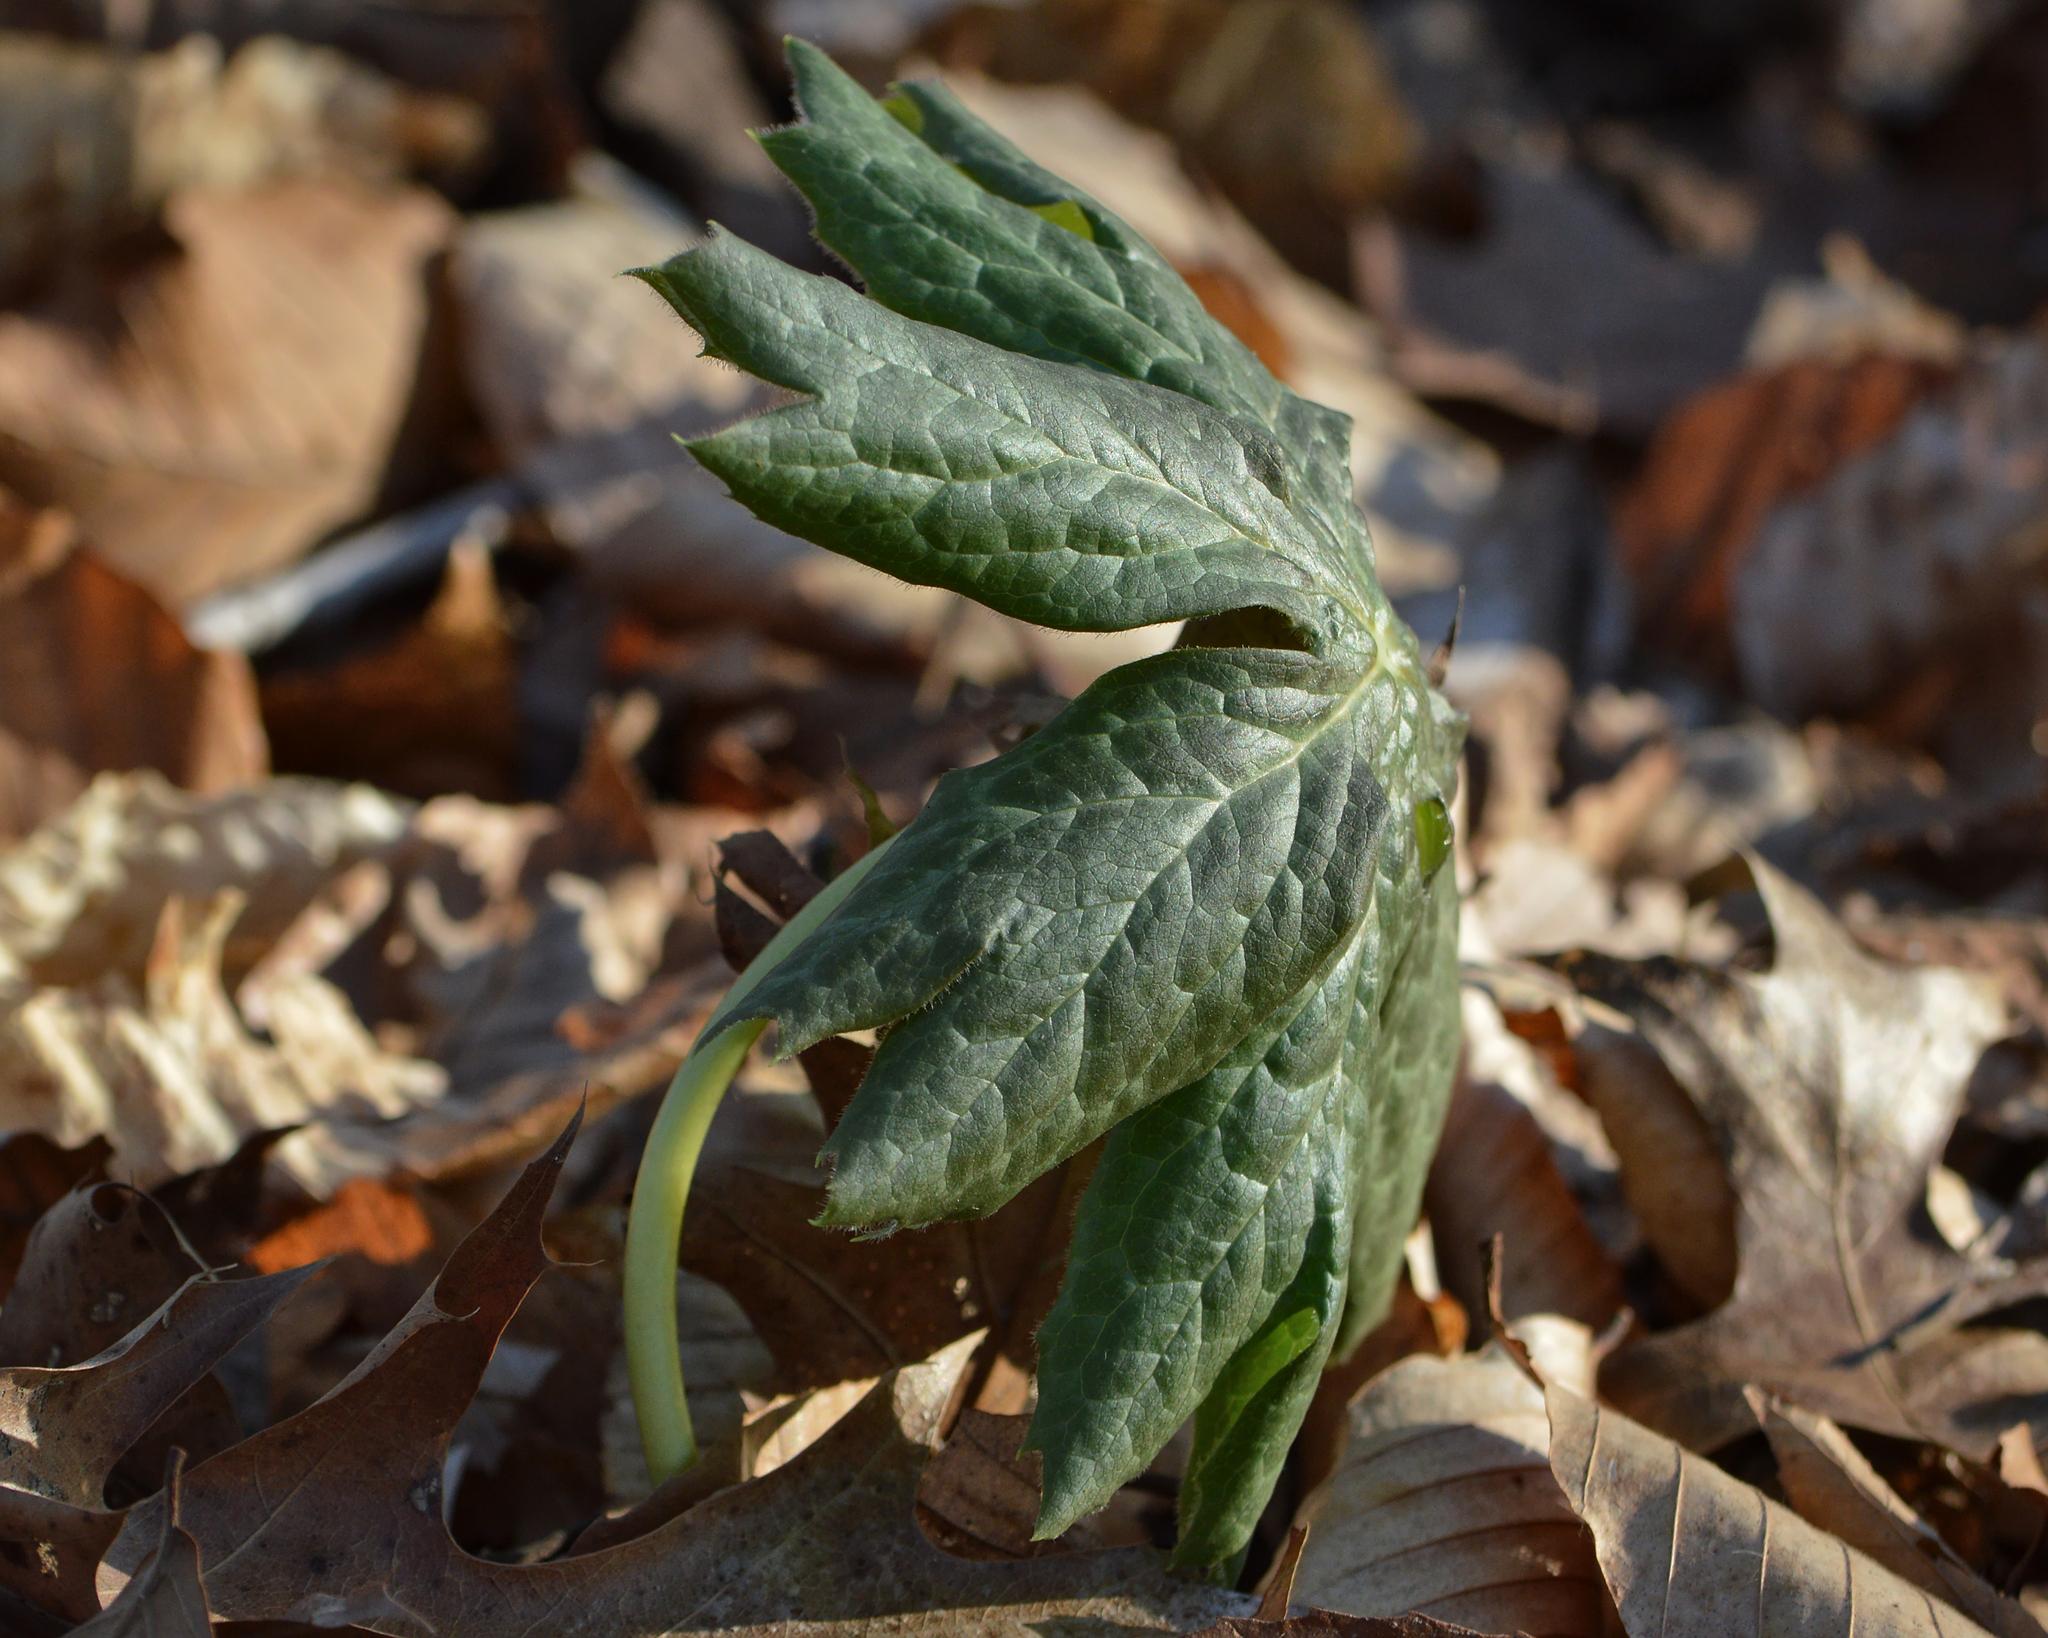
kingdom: Plantae
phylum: Tracheophyta
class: Magnoliopsida
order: Ranunculales
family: Berberidaceae
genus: Podophyllum
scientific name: Podophyllum peltatum
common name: Wild mandrake
